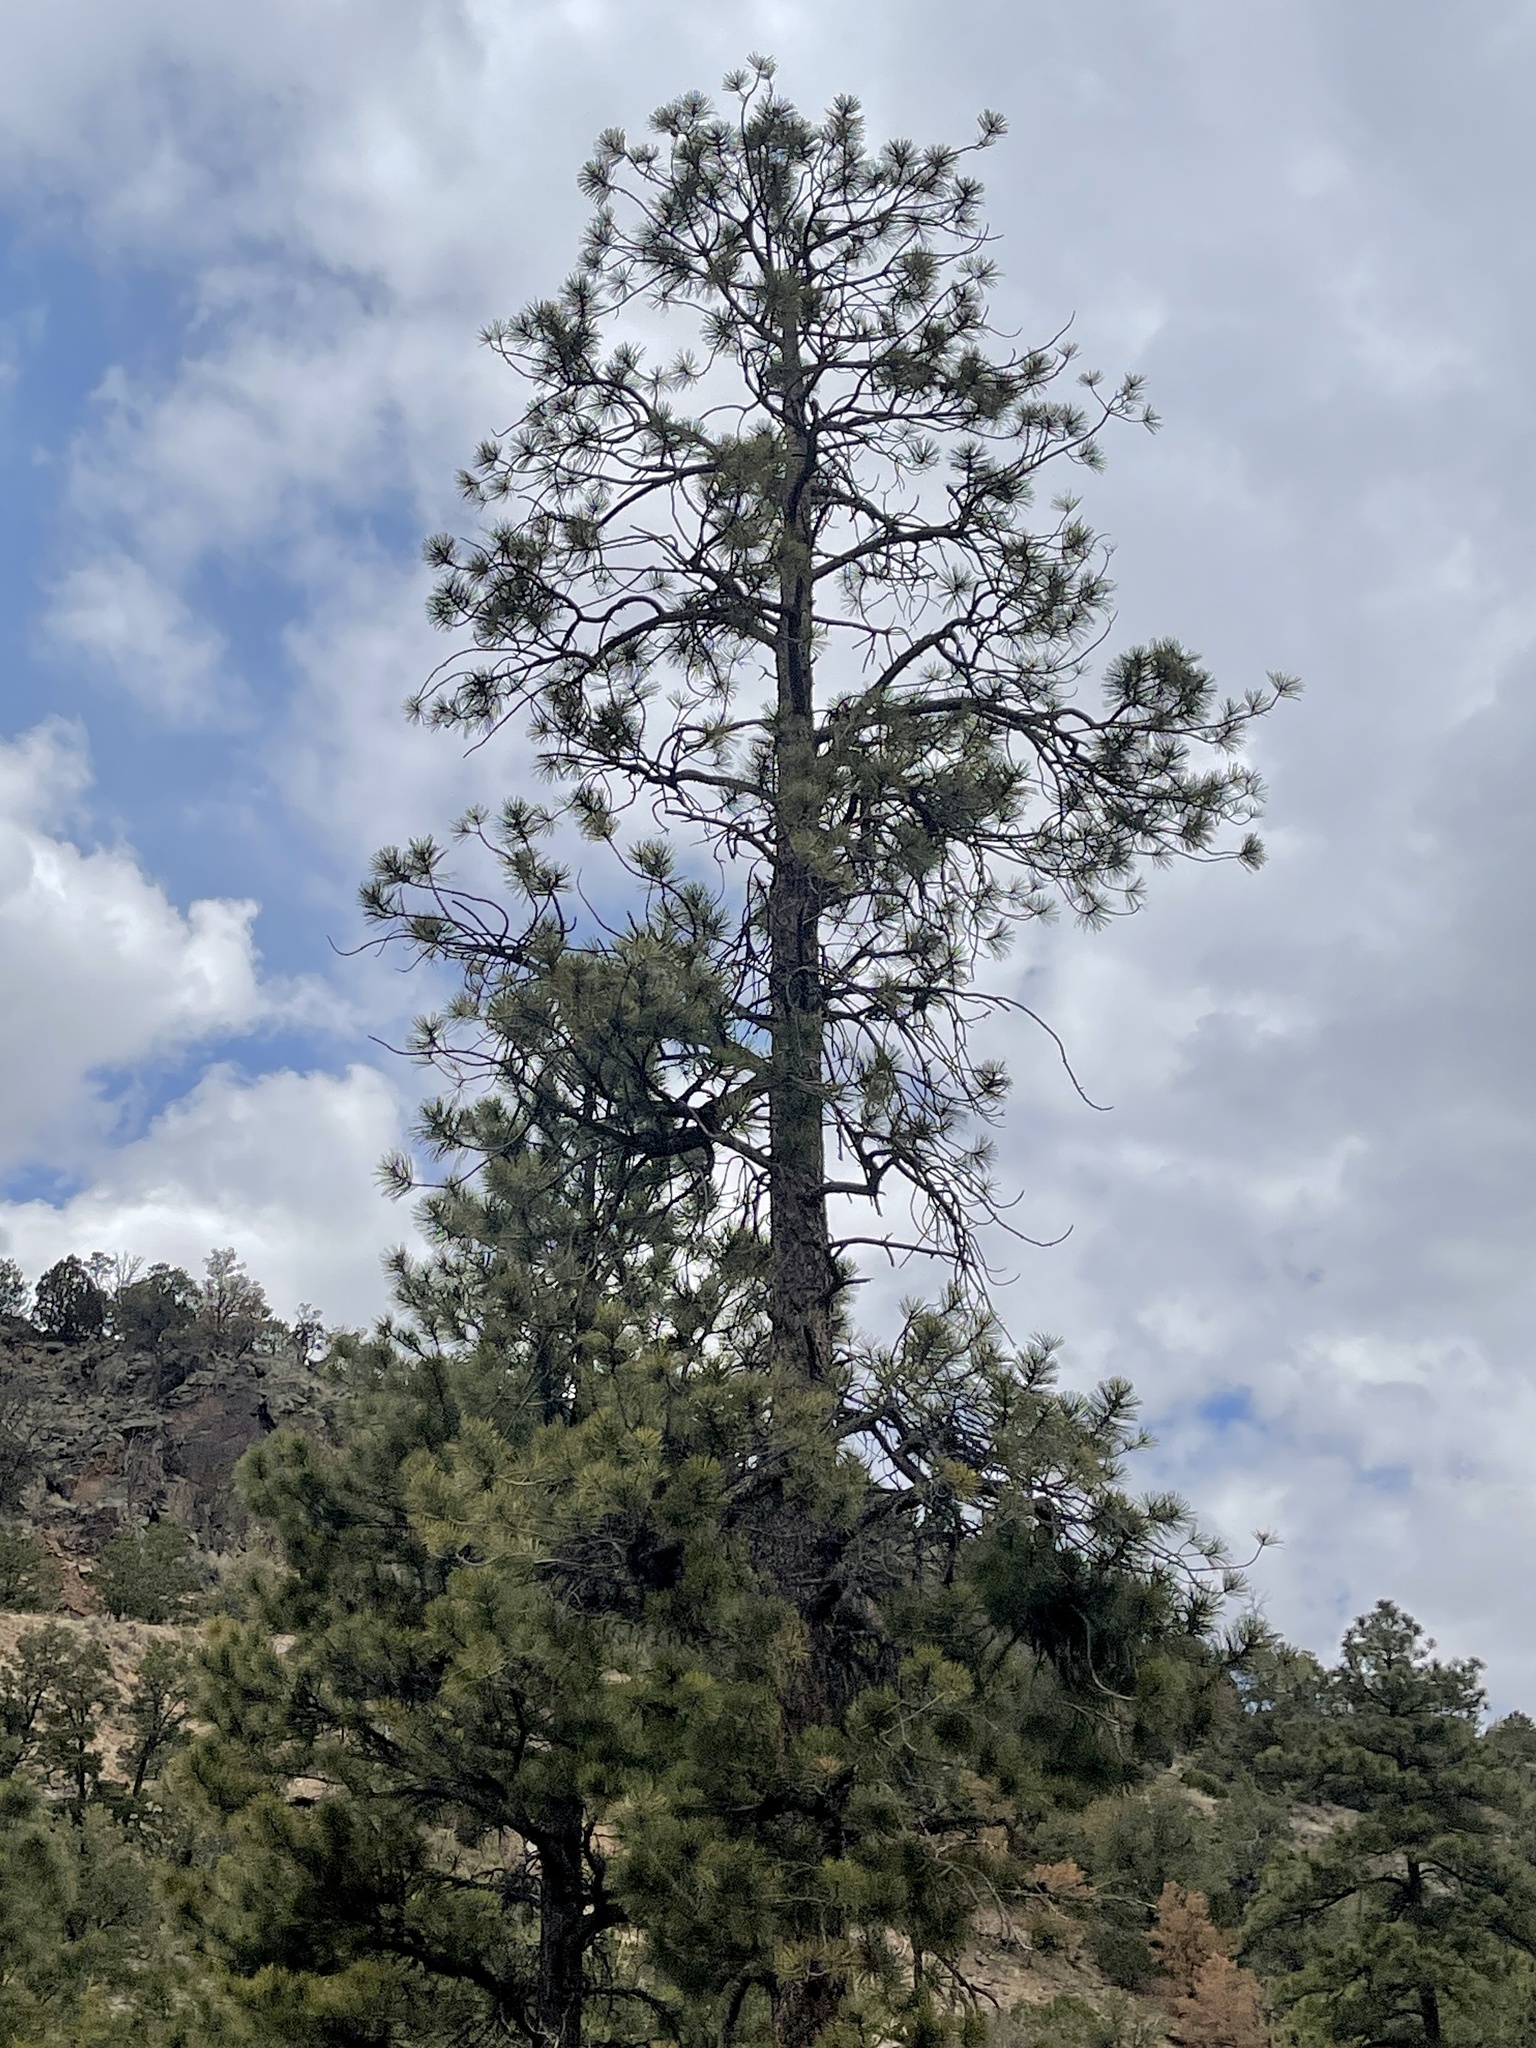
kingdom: Plantae
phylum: Tracheophyta
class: Pinopsida
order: Pinales
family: Pinaceae
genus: Pinus
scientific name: Pinus ponderosa
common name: Western yellow-pine
